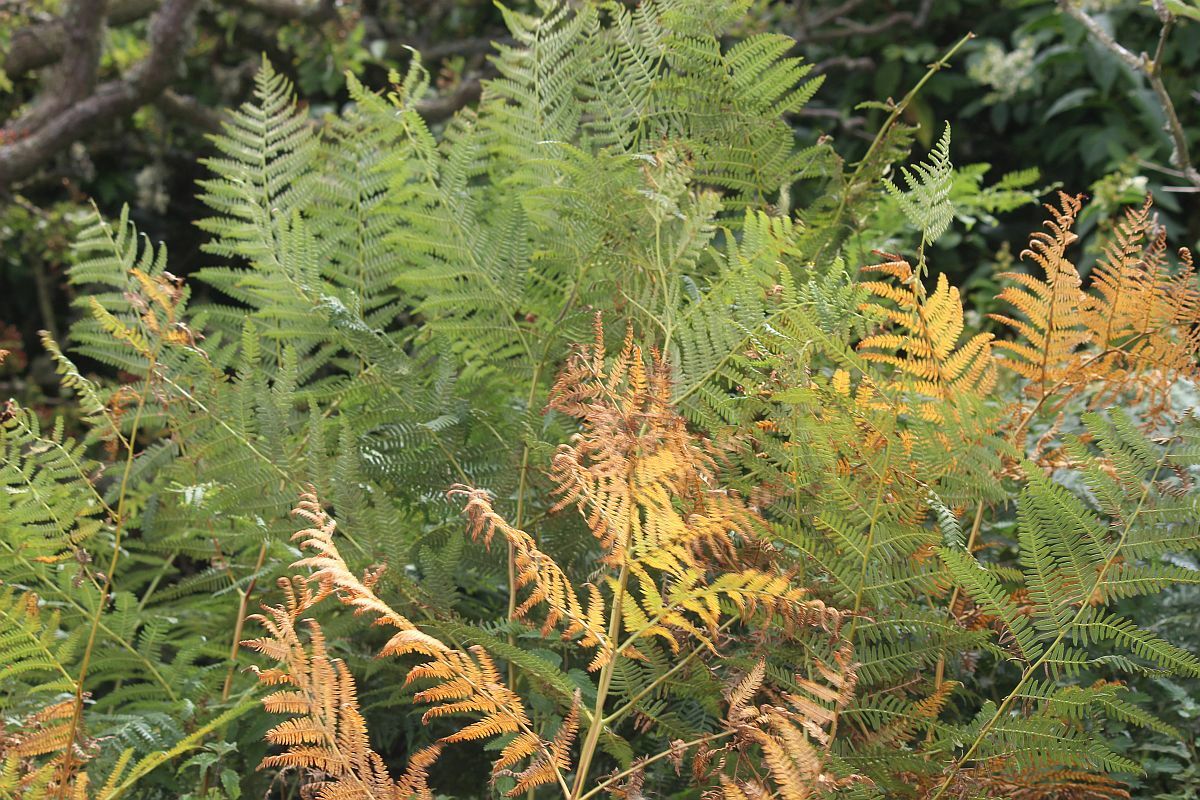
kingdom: Plantae
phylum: Tracheophyta
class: Polypodiopsida
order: Polypodiales
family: Dennstaedtiaceae
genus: Pteridium
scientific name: Pteridium aquilinum
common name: Bracken
